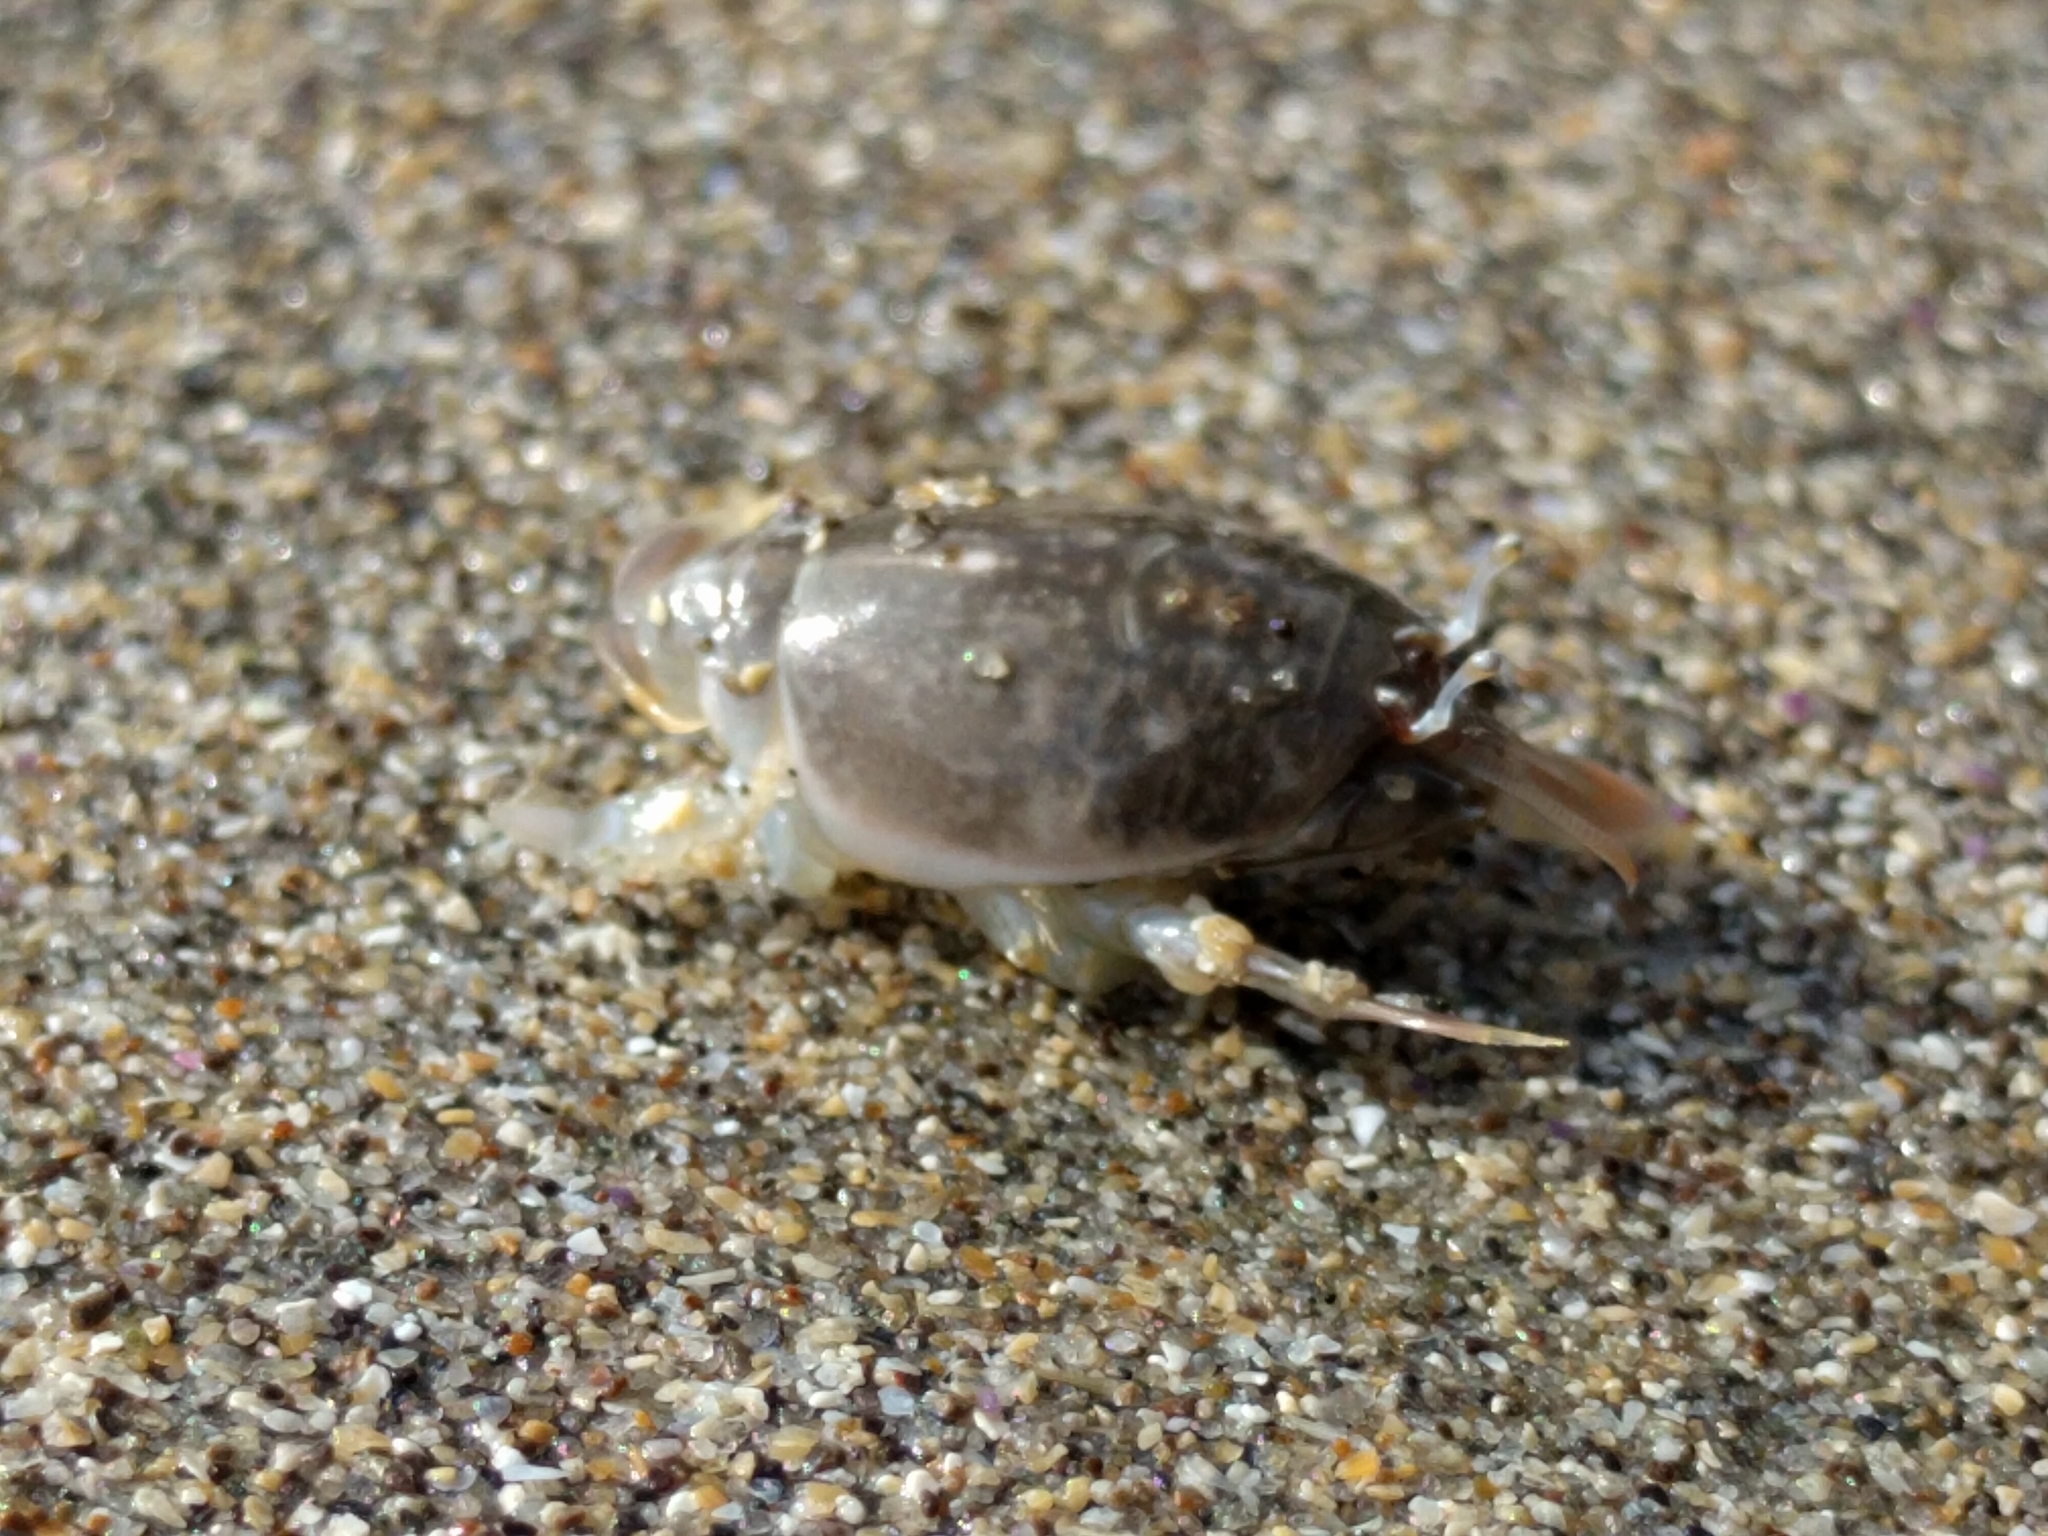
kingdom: Animalia
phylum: Arthropoda
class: Malacostraca
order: Decapoda
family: Hippidae
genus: Emerita
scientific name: Emerita analoga
